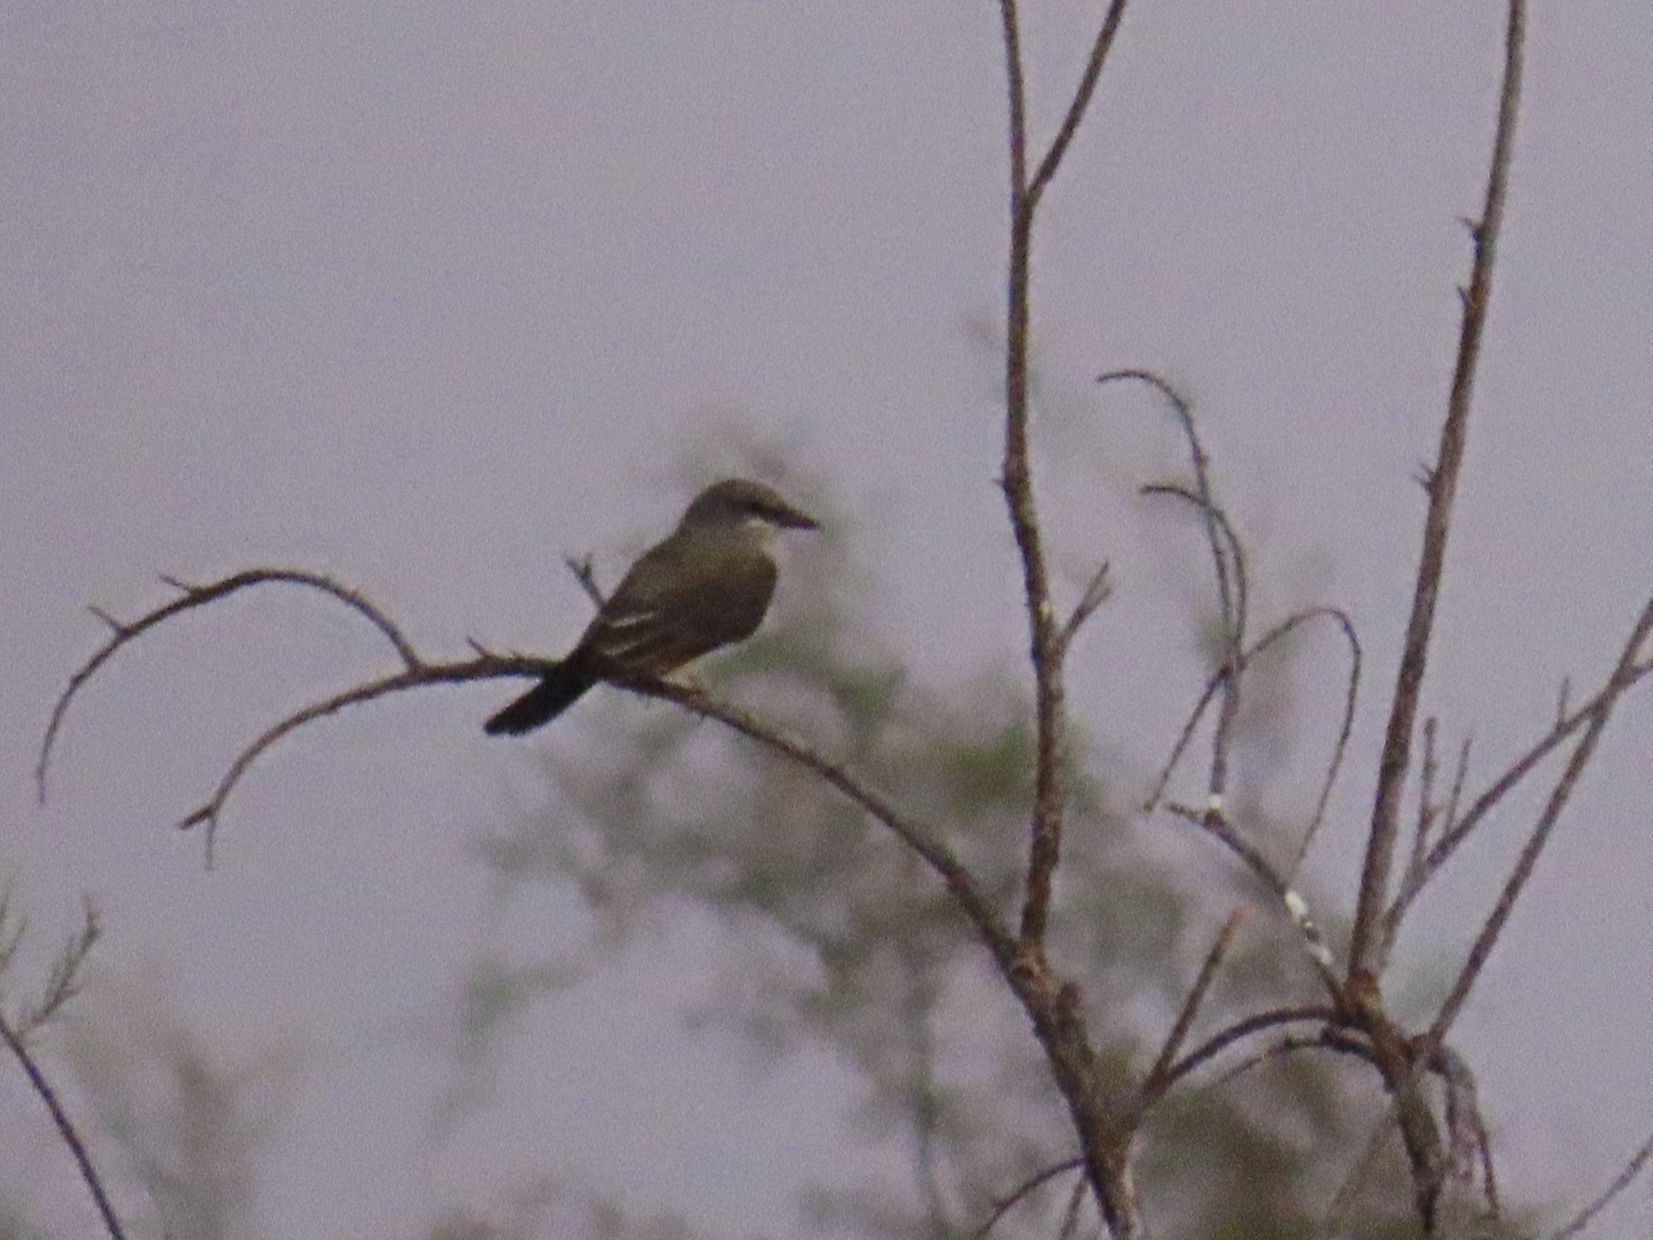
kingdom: Animalia
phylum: Chordata
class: Aves
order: Passeriformes
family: Tyrannidae
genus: Tyrannus
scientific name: Tyrannus verticalis
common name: Western kingbird
